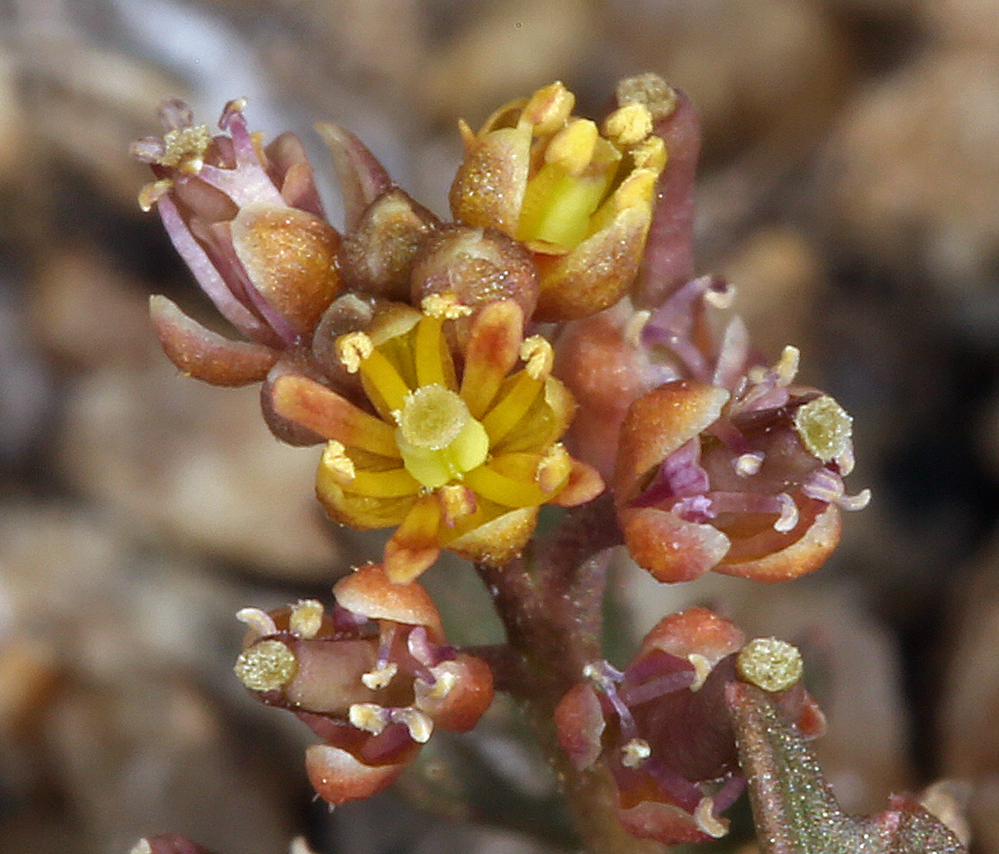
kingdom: Plantae
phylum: Tracheophyta
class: Magnoliopsida
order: Brassicales
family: Brassicaceae
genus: Rorippa
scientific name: Rorippa curvisiliqua
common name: Curve-pod yellow cress
